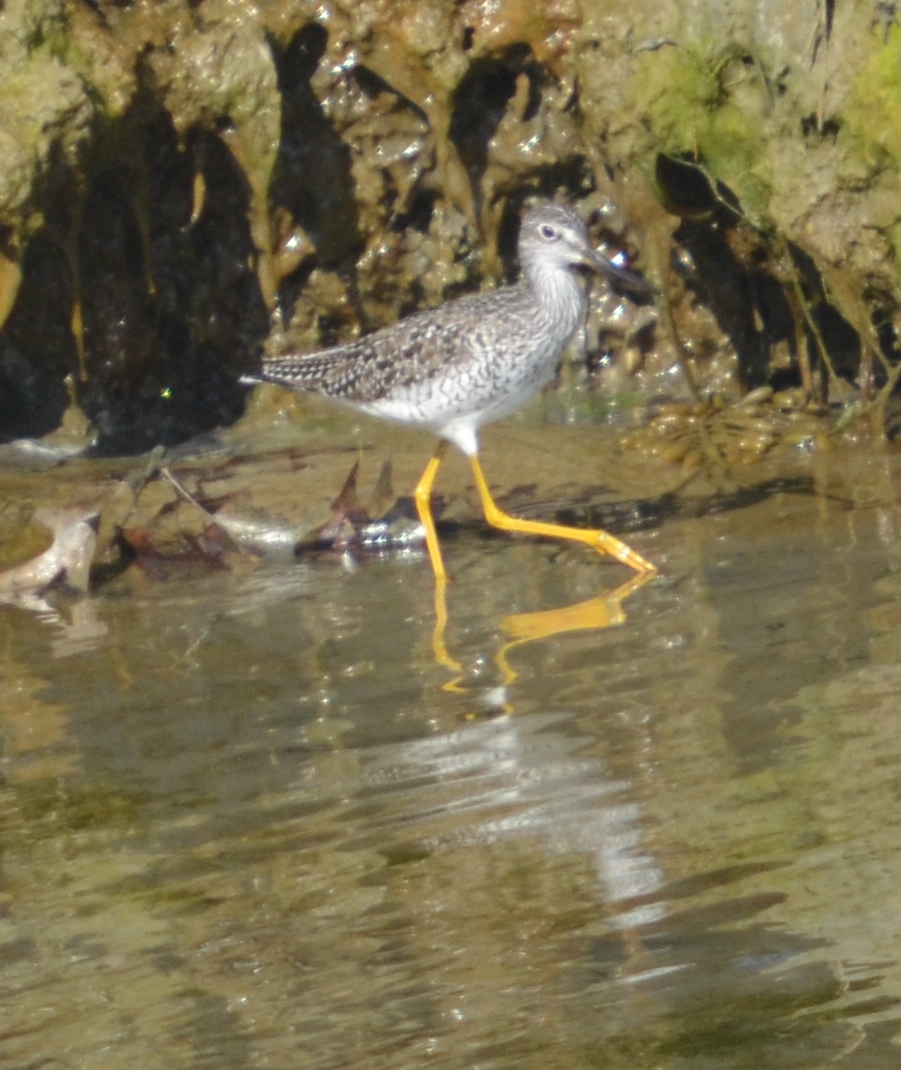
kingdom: Animalia
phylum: Chordata
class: Aves
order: Charadriiformes
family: Scolopacidae
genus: Tringa
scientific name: Tringa melanoleuca
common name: Greater yellowlegs
